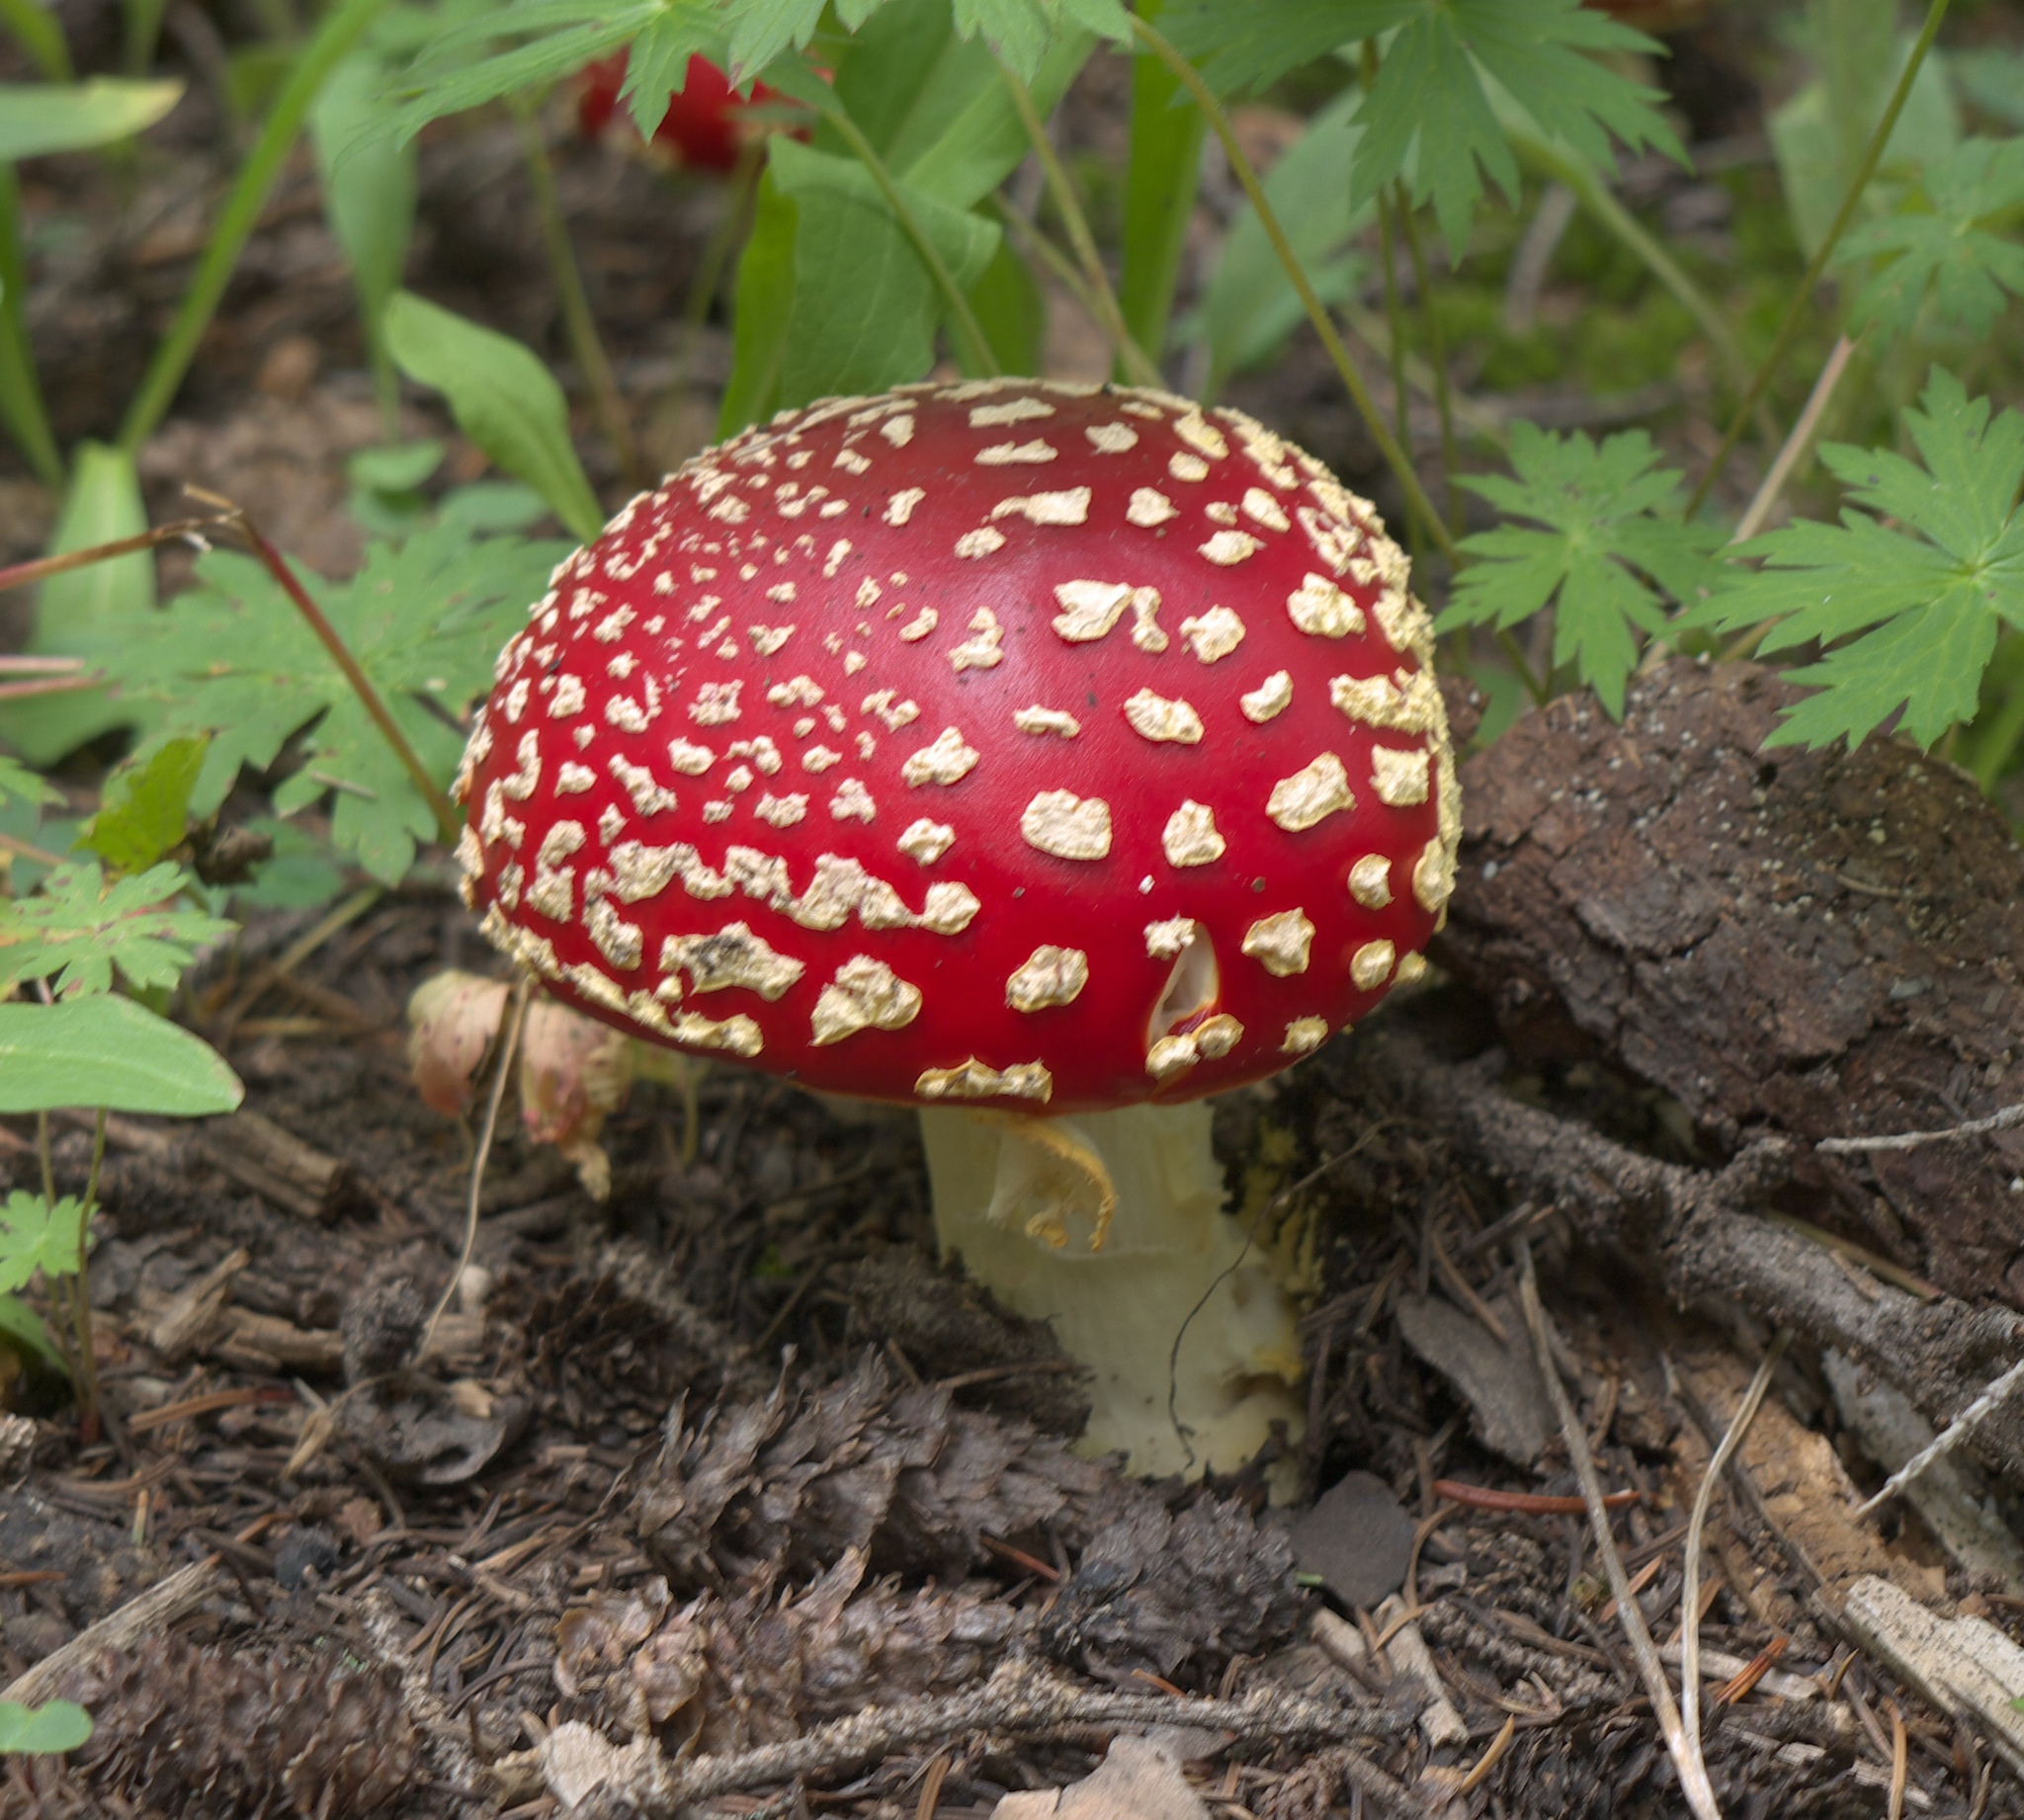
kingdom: Fungi
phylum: Basidiomycota
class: Agaricomycetes
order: Agaricales
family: Amanitaceae
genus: Amanita
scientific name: Amanita muscaria
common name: Fly agaric
